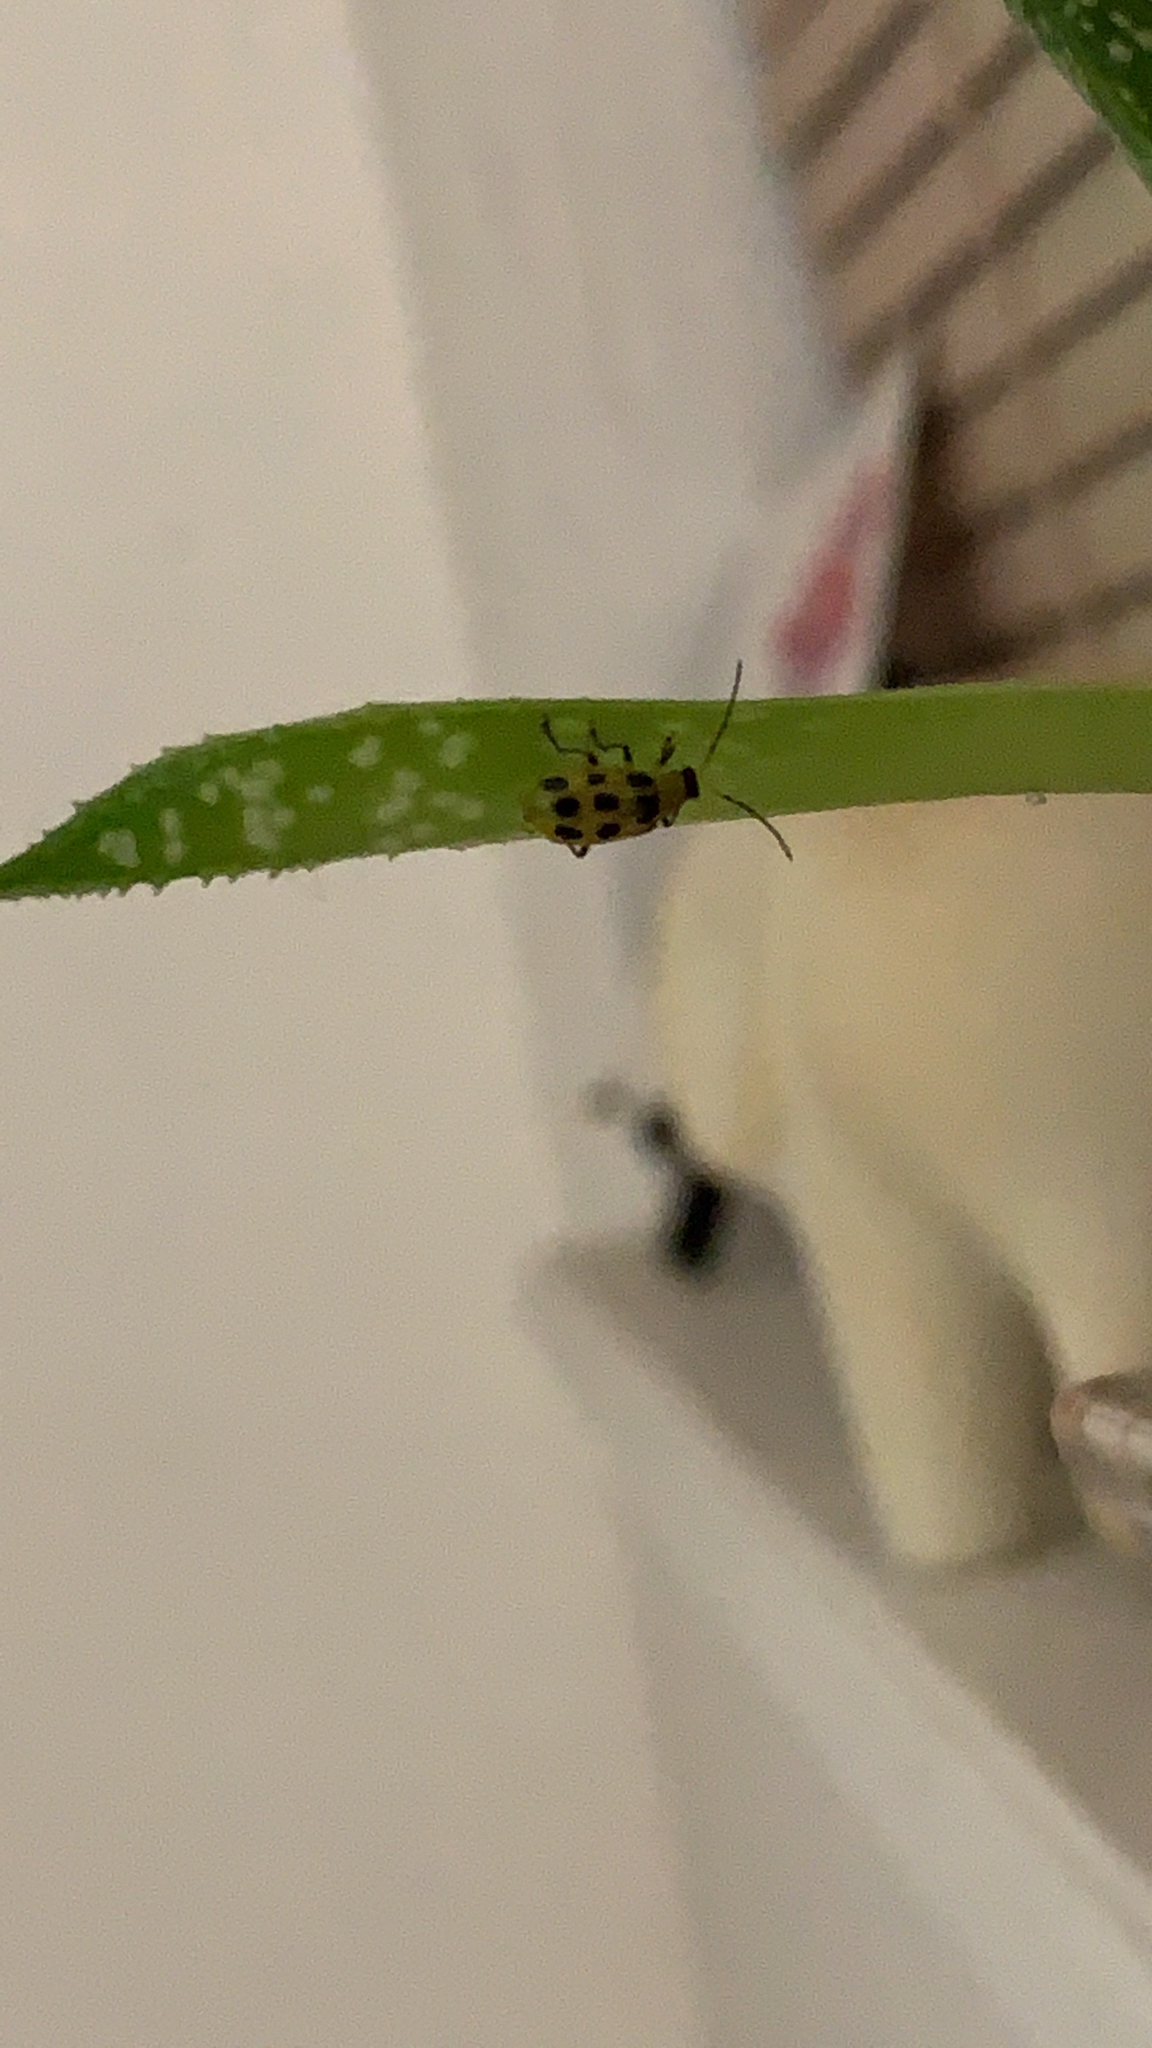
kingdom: Animalia
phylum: Arthropoda
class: Insecta
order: Coleoptera
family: Chrysomelidae
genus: Diabrotica
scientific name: Diabrotica undecimpunctata
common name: Spotted cucumber beetle
